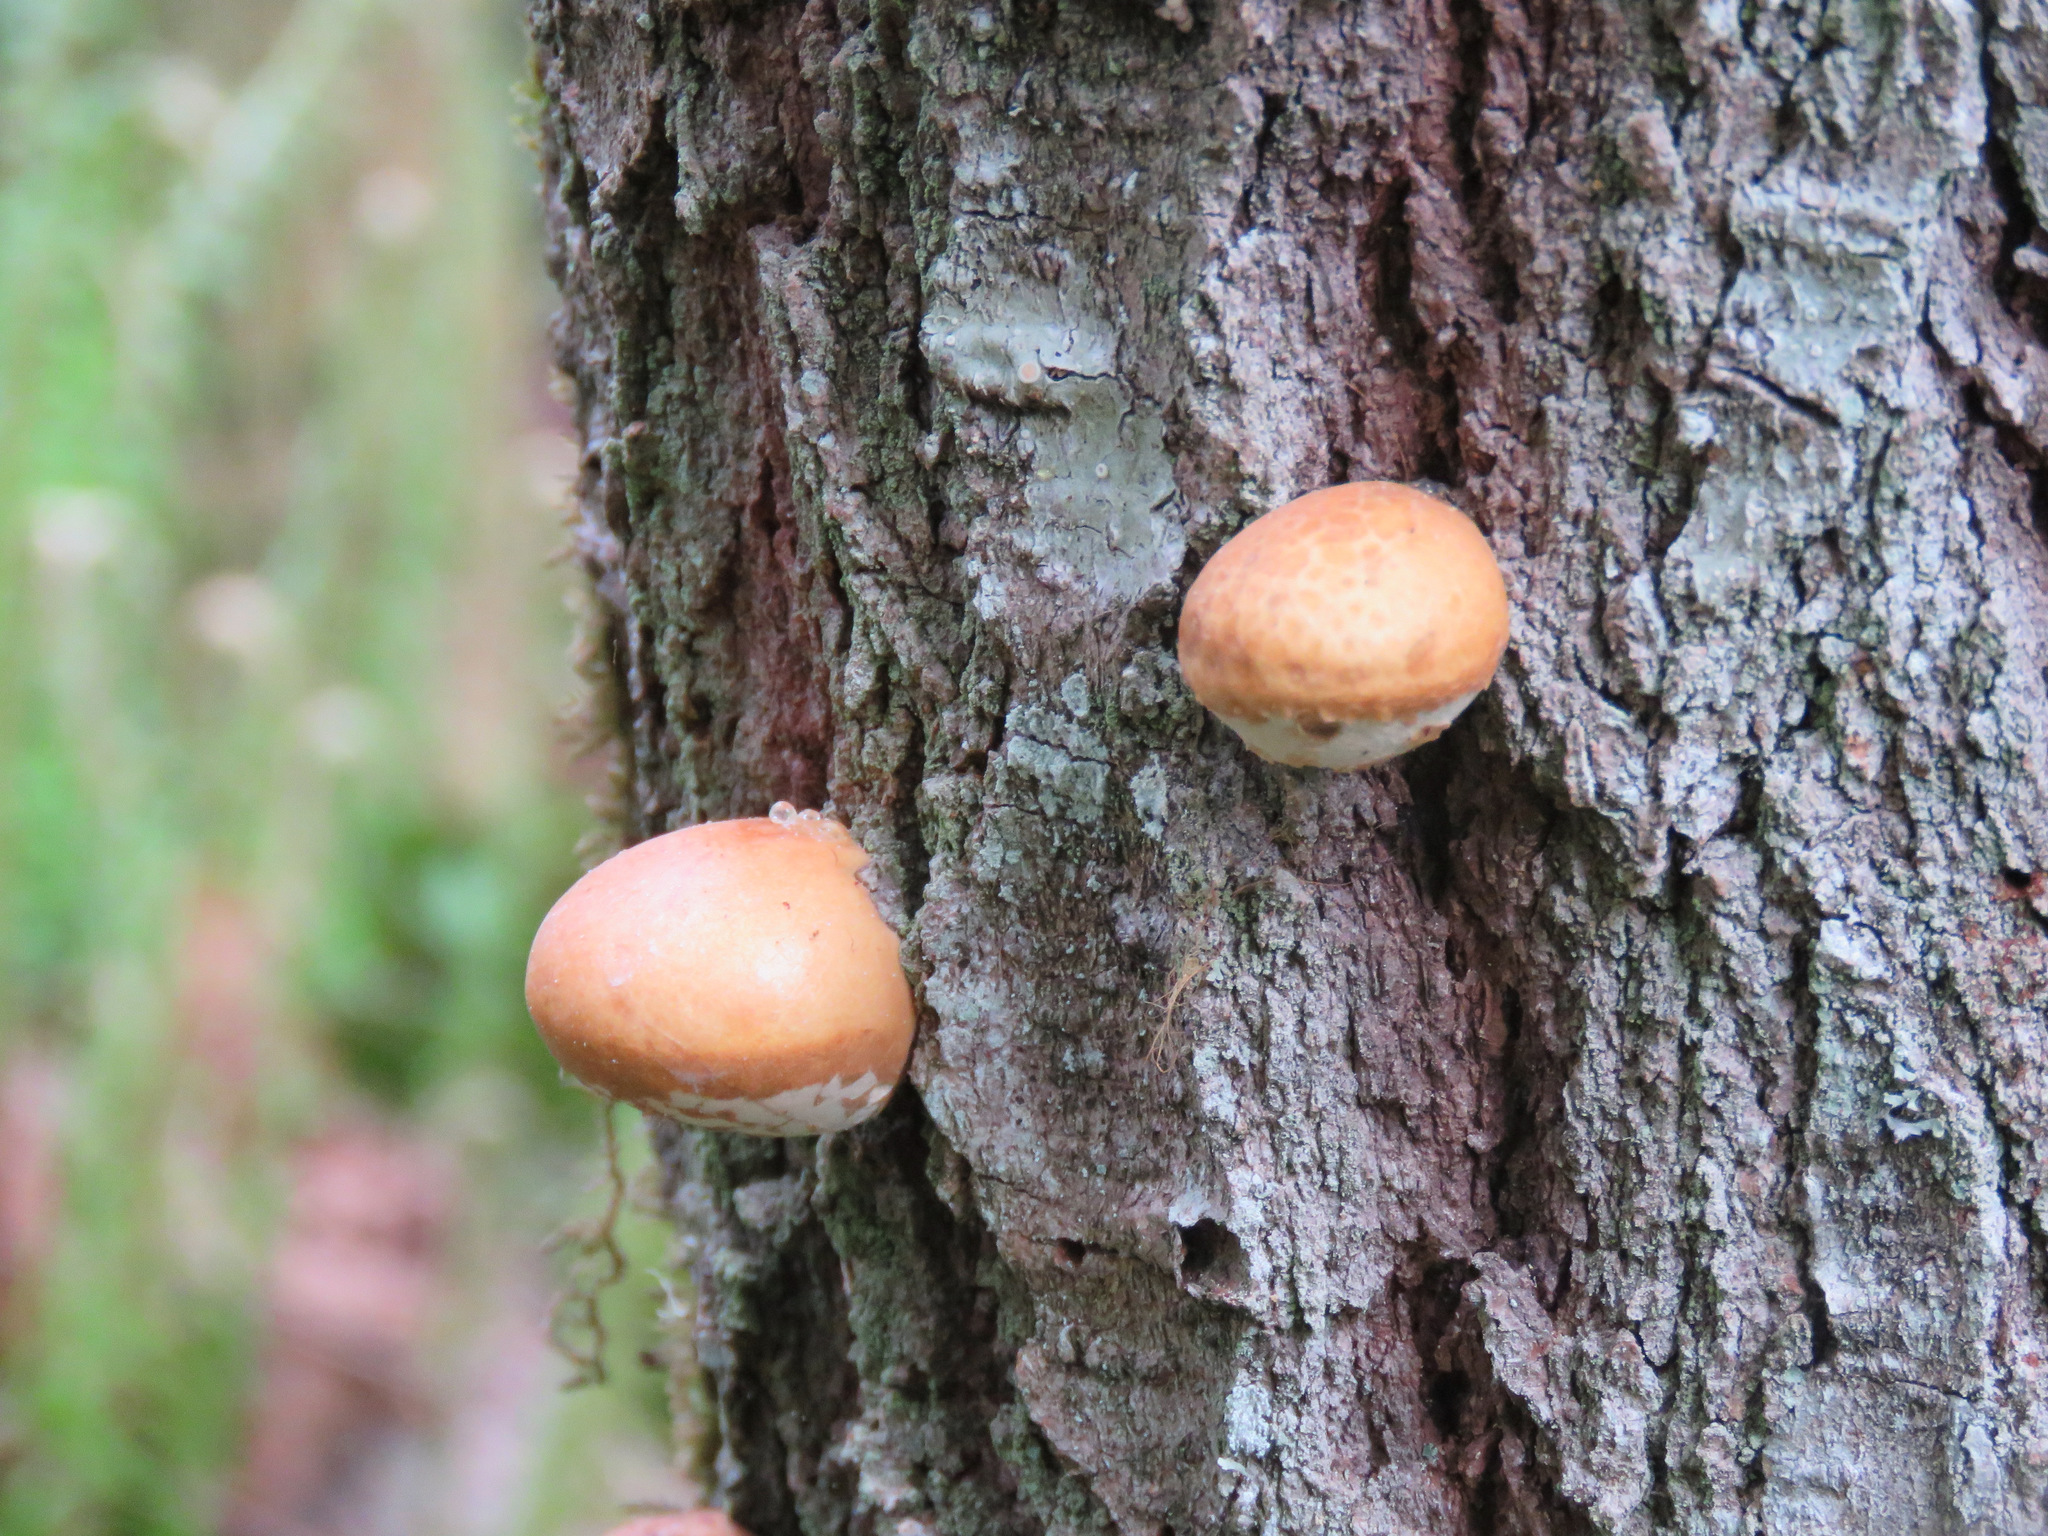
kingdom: Fungi
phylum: Basidiomycota
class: Agaricomycetes
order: Polyporales
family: Polyporaceae
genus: Cryptoporus
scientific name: Cryptoporus volvatus
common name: Veiled polypore
